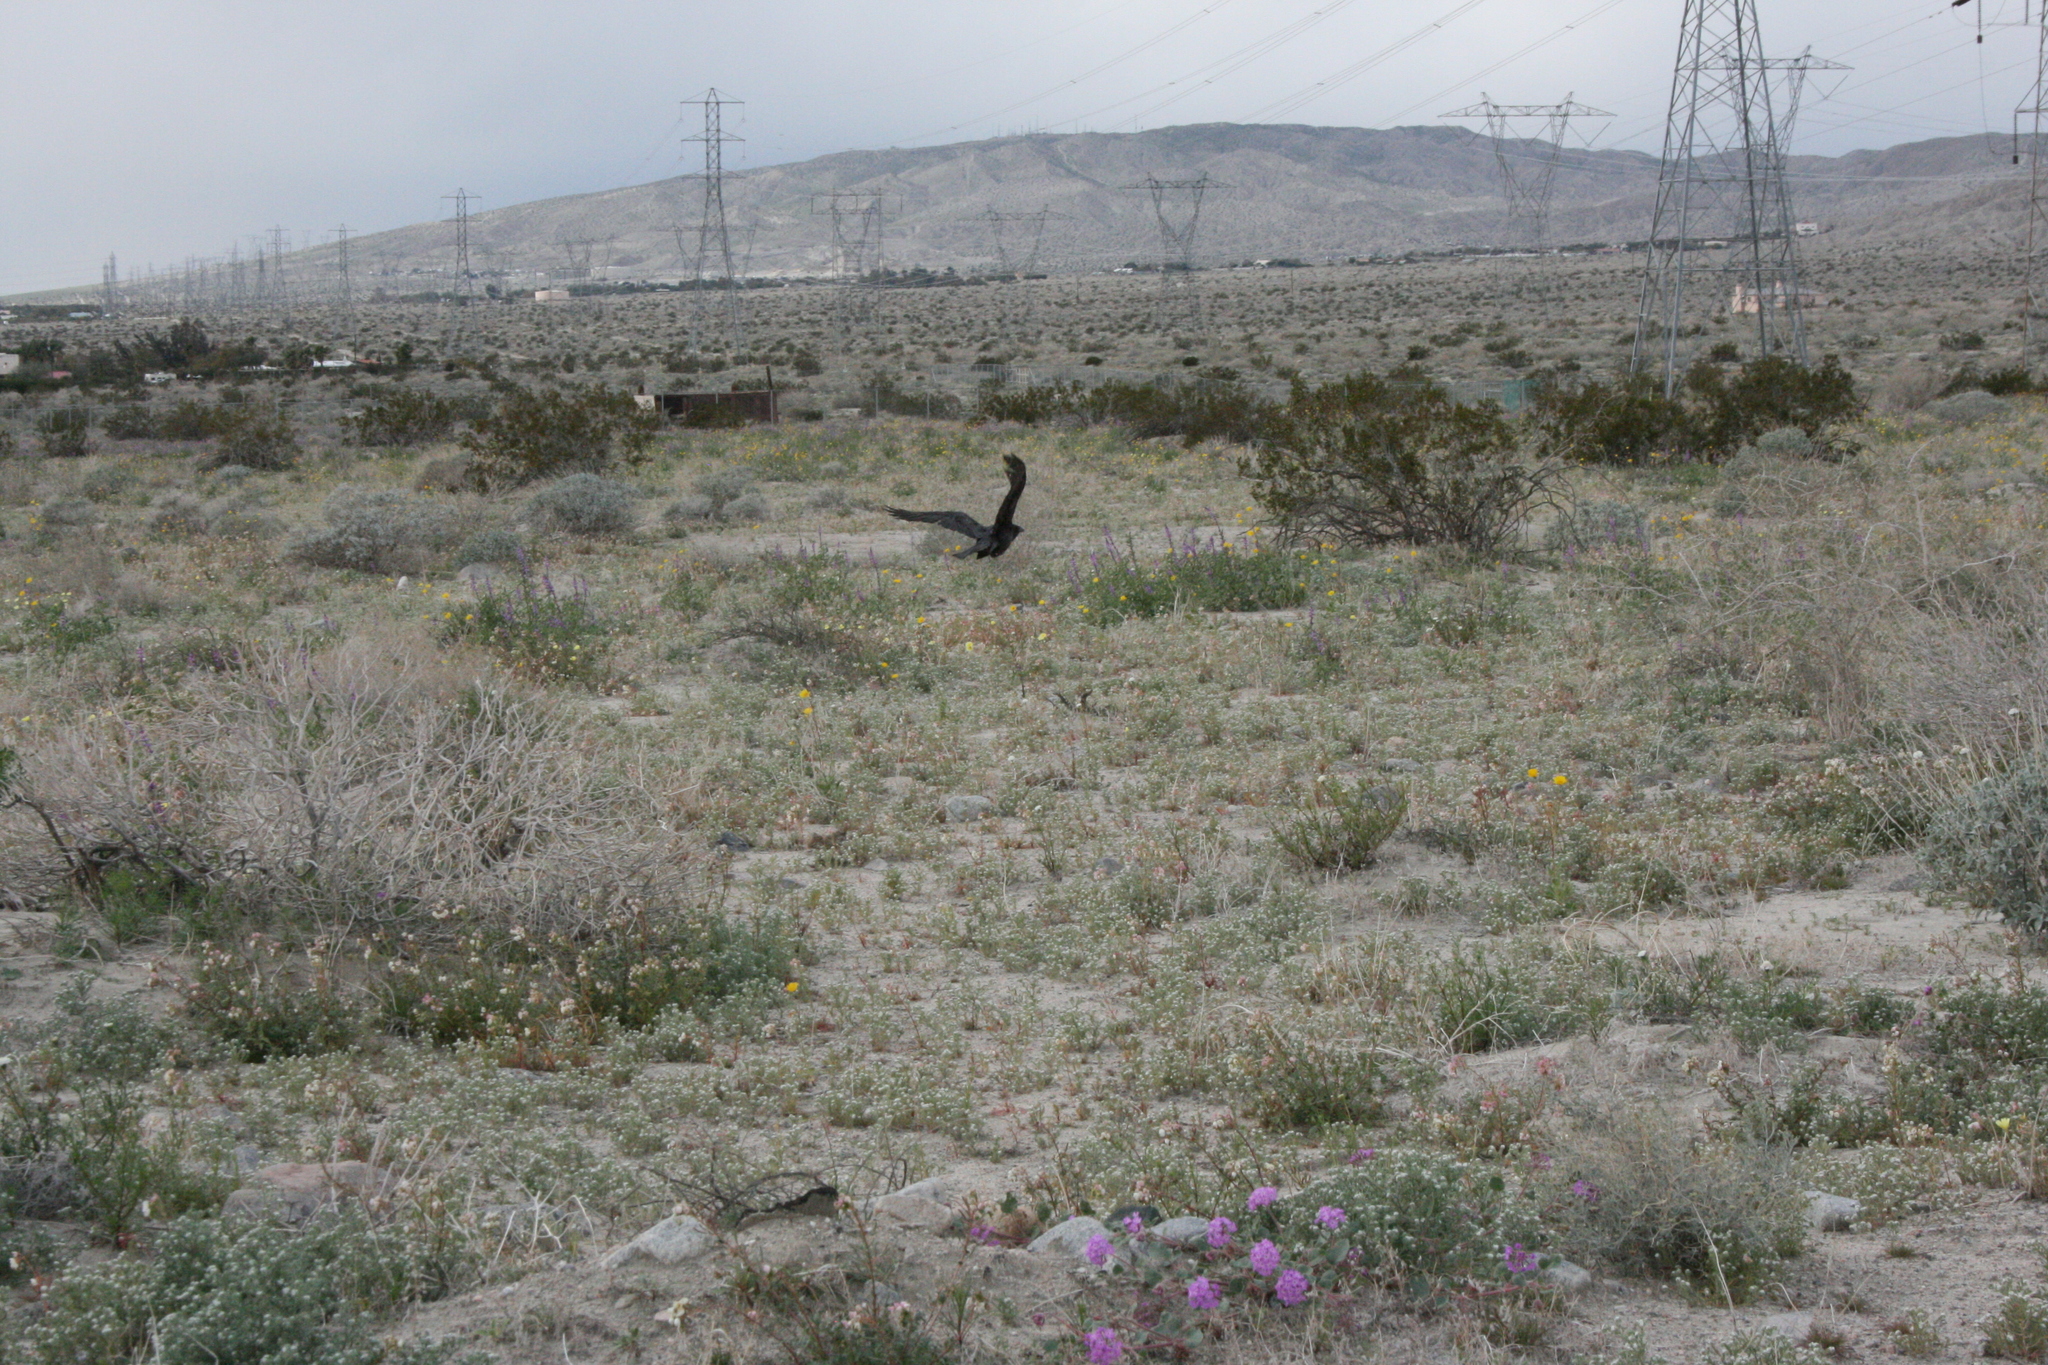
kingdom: Animalia
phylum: Chordata
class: Aves
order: Passeriformes
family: Corvidae
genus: Corvus
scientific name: Corvus corax
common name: Common raven
